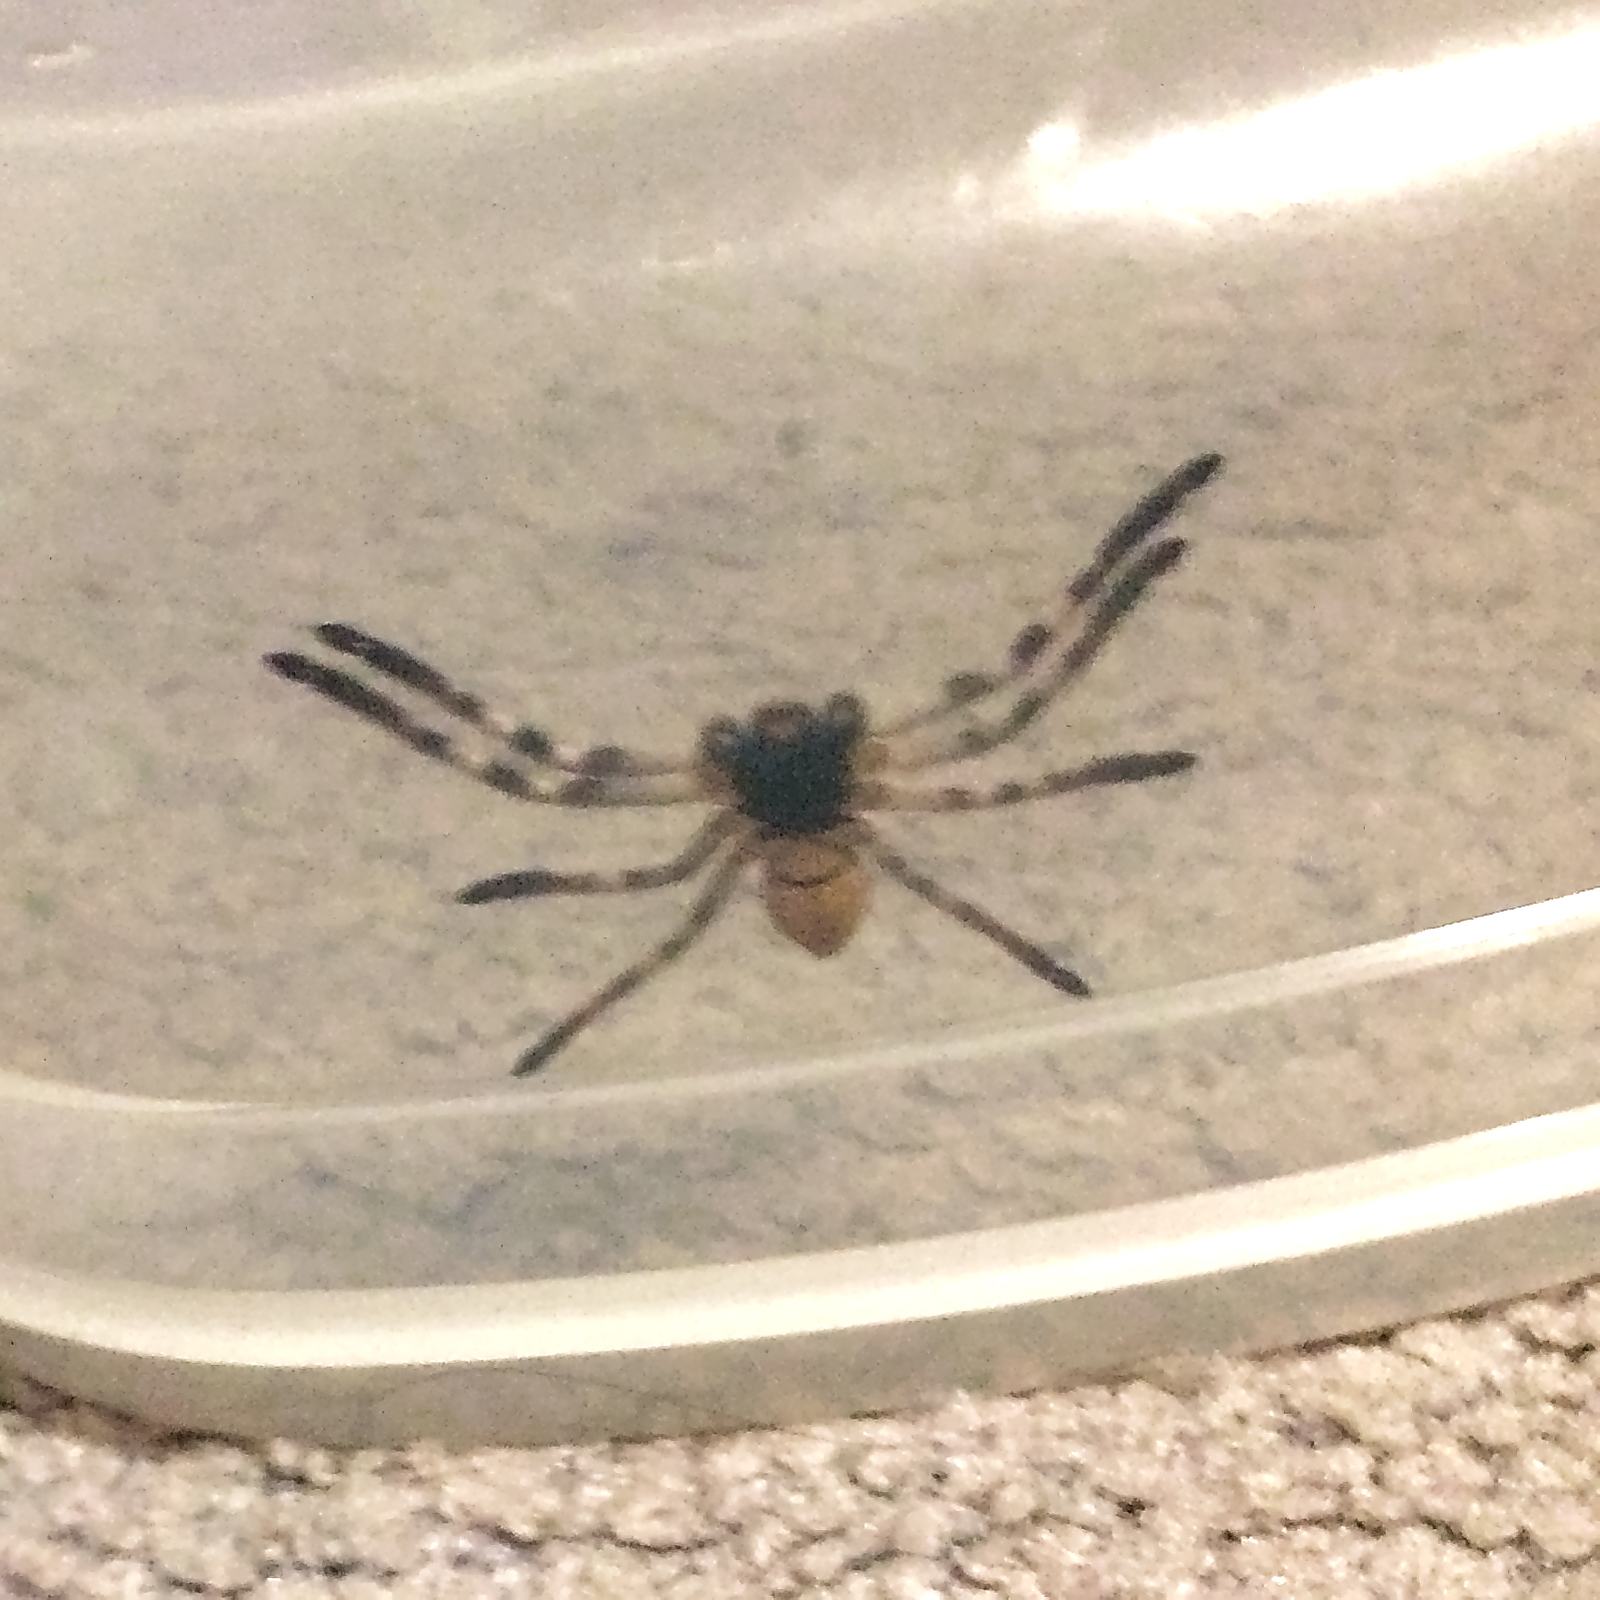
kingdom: Animalia
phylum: Arthropoda
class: Arachnida
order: Araneae
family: Sparassidae
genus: Isopedella
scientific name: Isopedella victorialis
